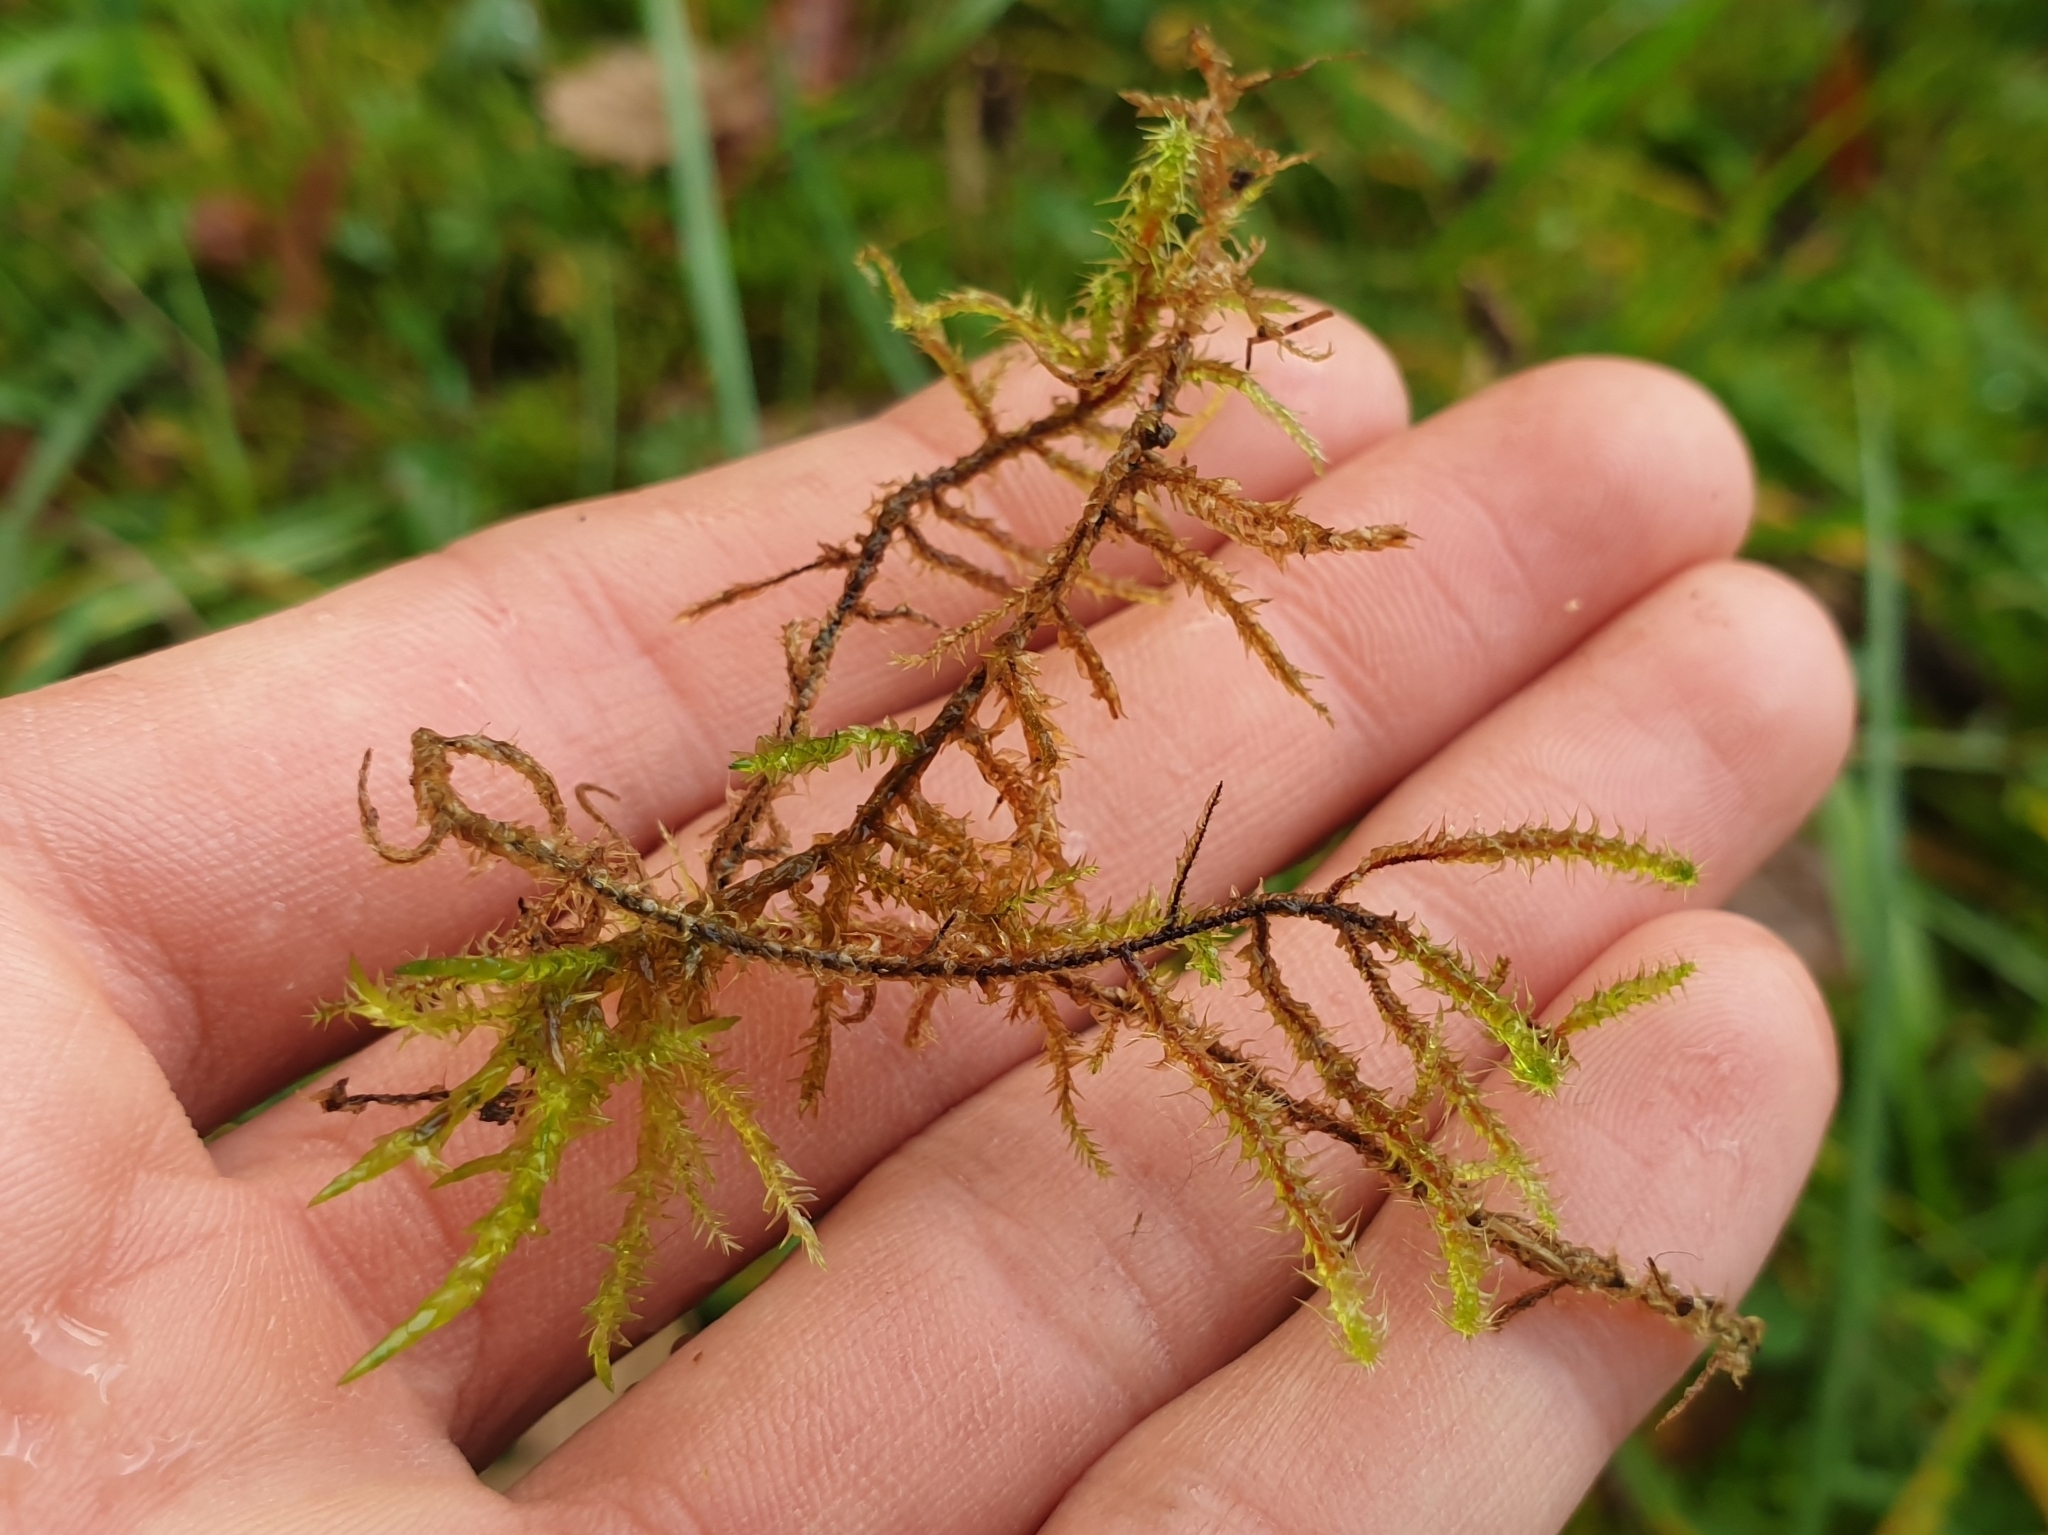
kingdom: Plantae
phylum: Bryophyta
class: Bryopsida
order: Hypnales
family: Hylocomiaceae
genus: Rhytidiadelphus
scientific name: Rhytidiadelphus squarrosus
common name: Springy turf-moss
